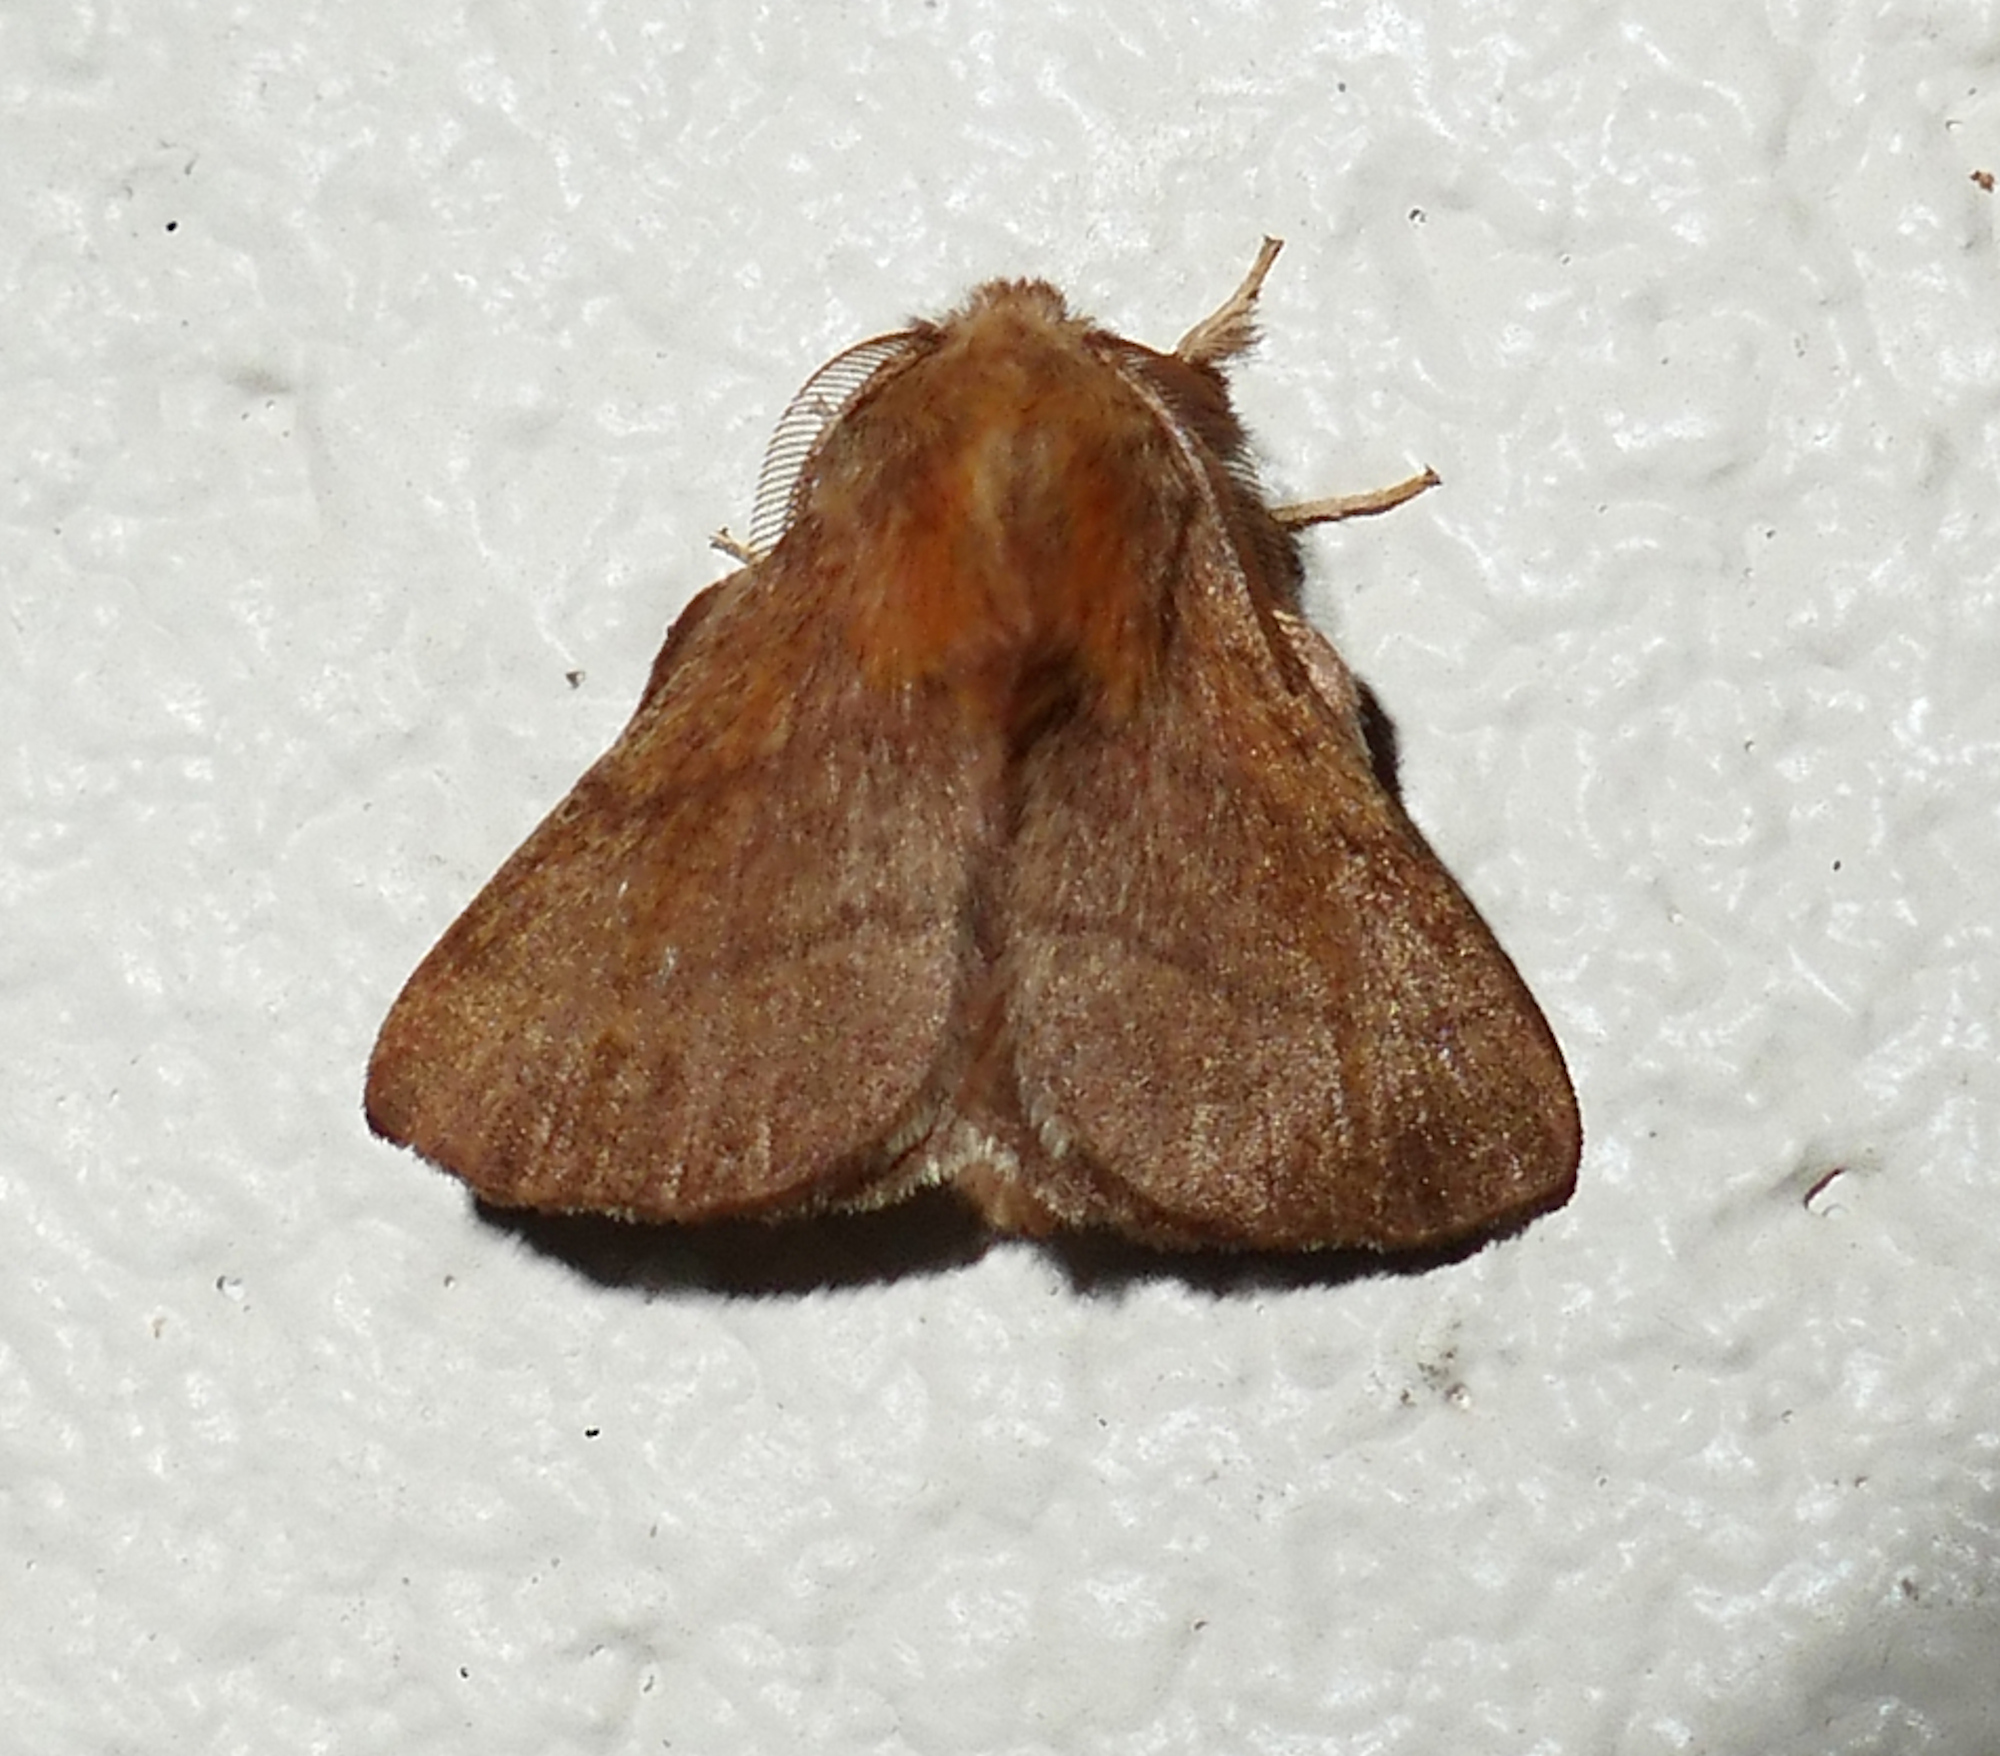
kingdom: Animalia
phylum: Arthropoda
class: Insecta
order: Lepidoptera
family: Lasiocampidae
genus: Malacosoma
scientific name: Malacosoma disstria
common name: Forest tent caterpillar
